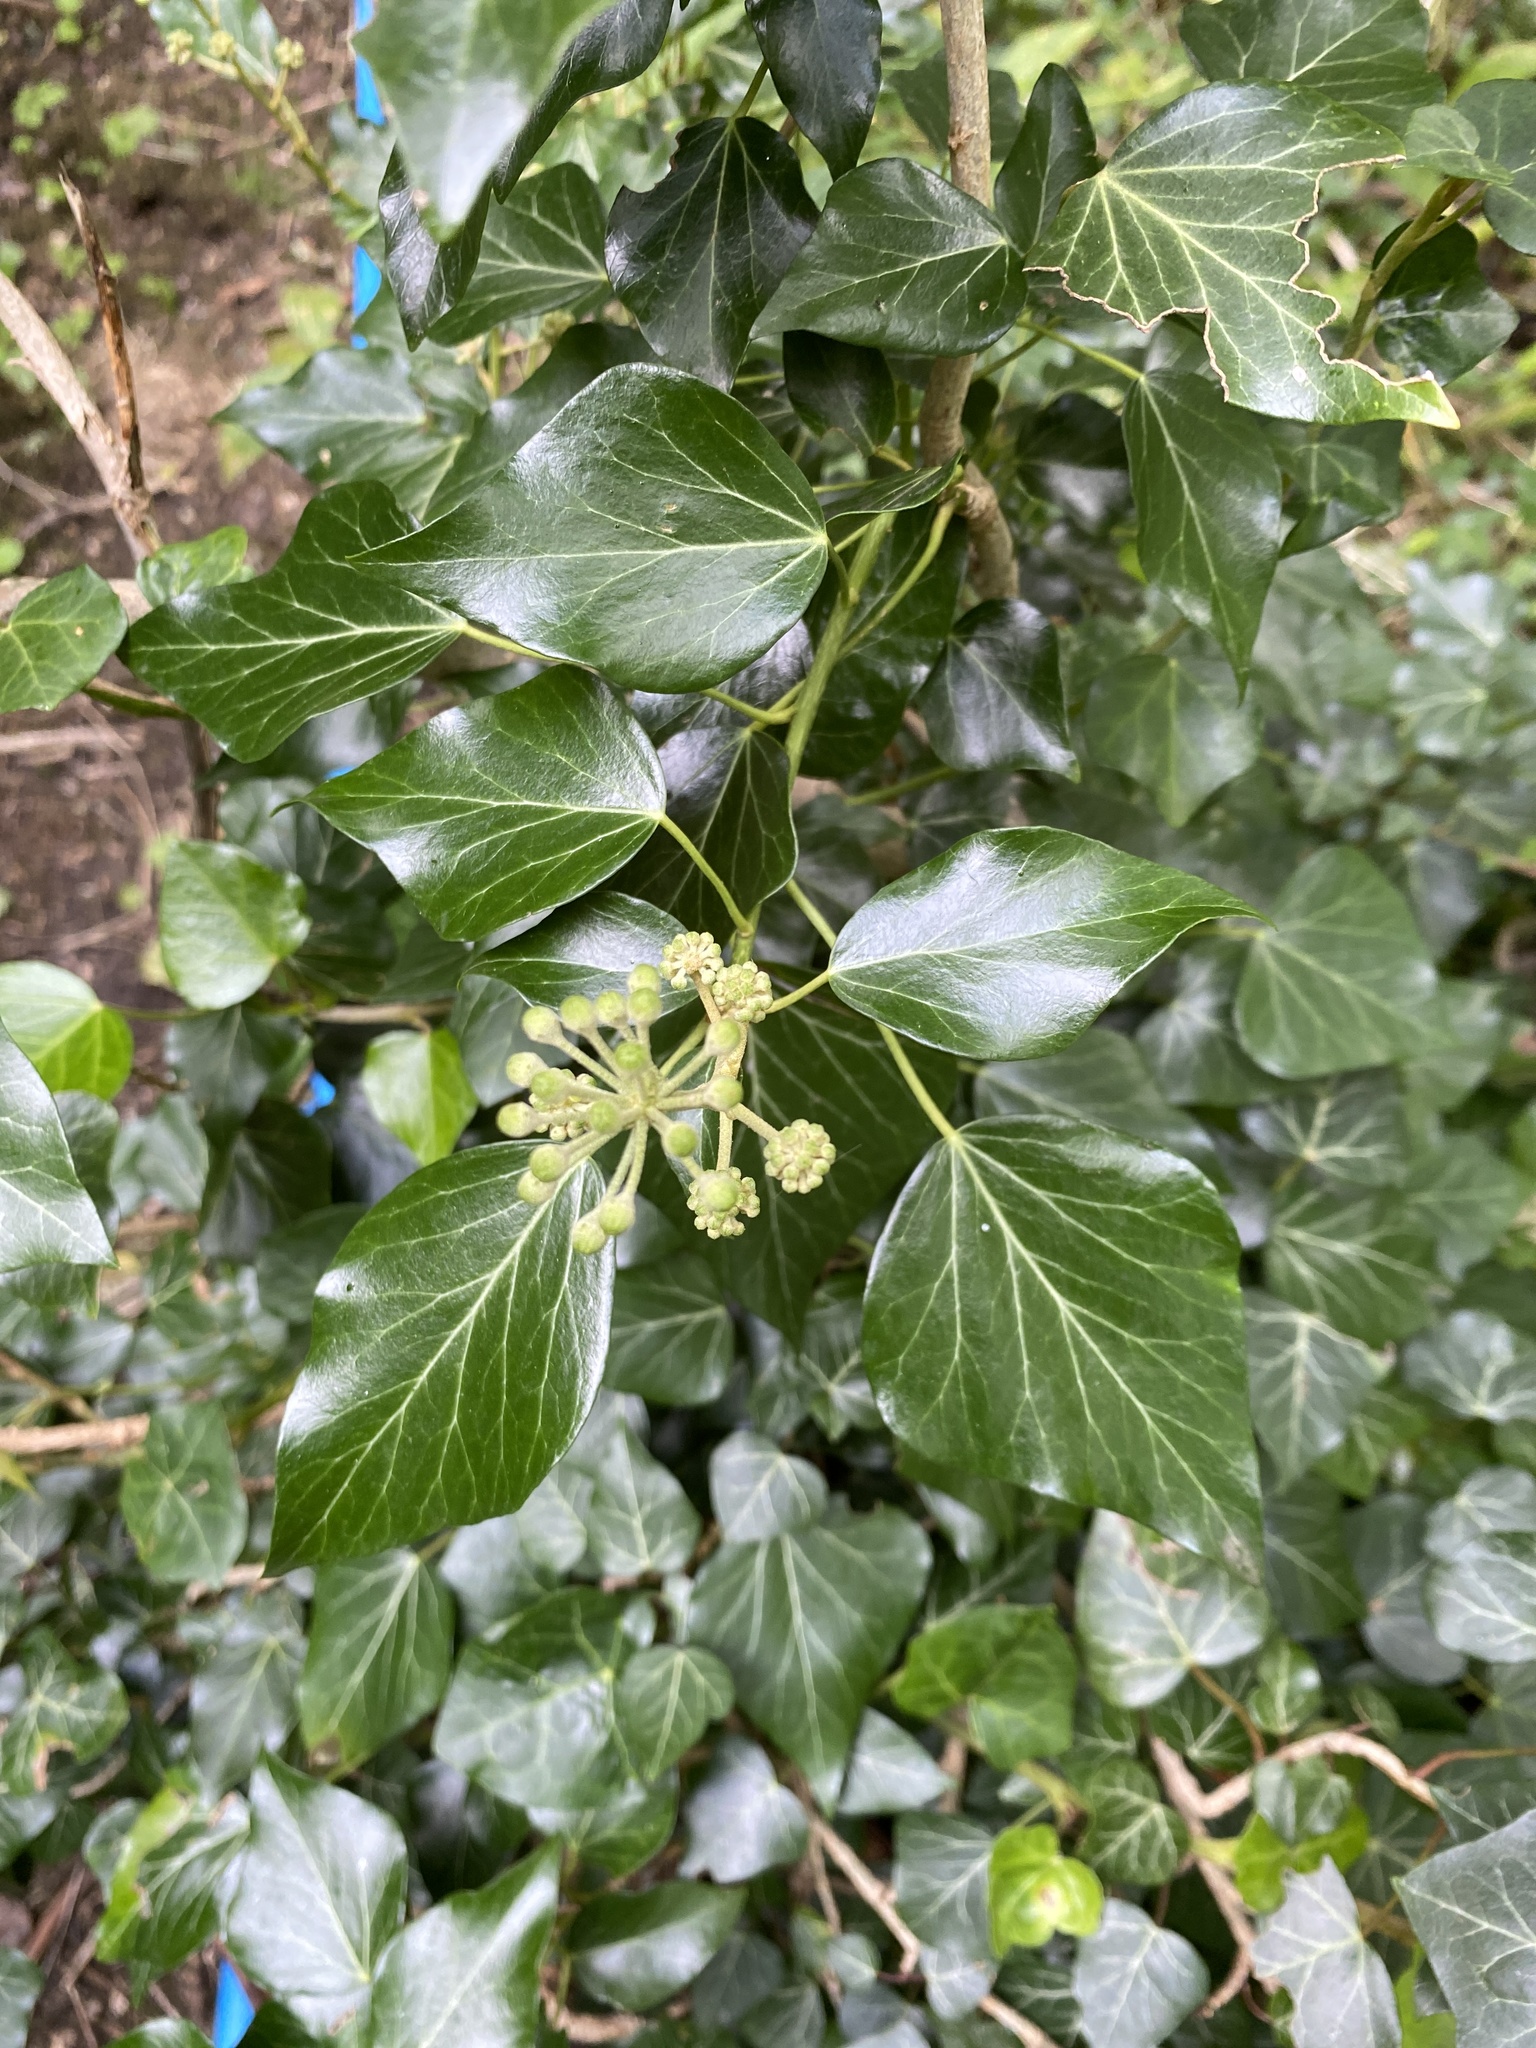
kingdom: Plantae
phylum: Tracheophyta
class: Magnoliopsida
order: Apiales
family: Araliaceae
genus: Hedera
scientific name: Hedera helix
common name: Ivy
